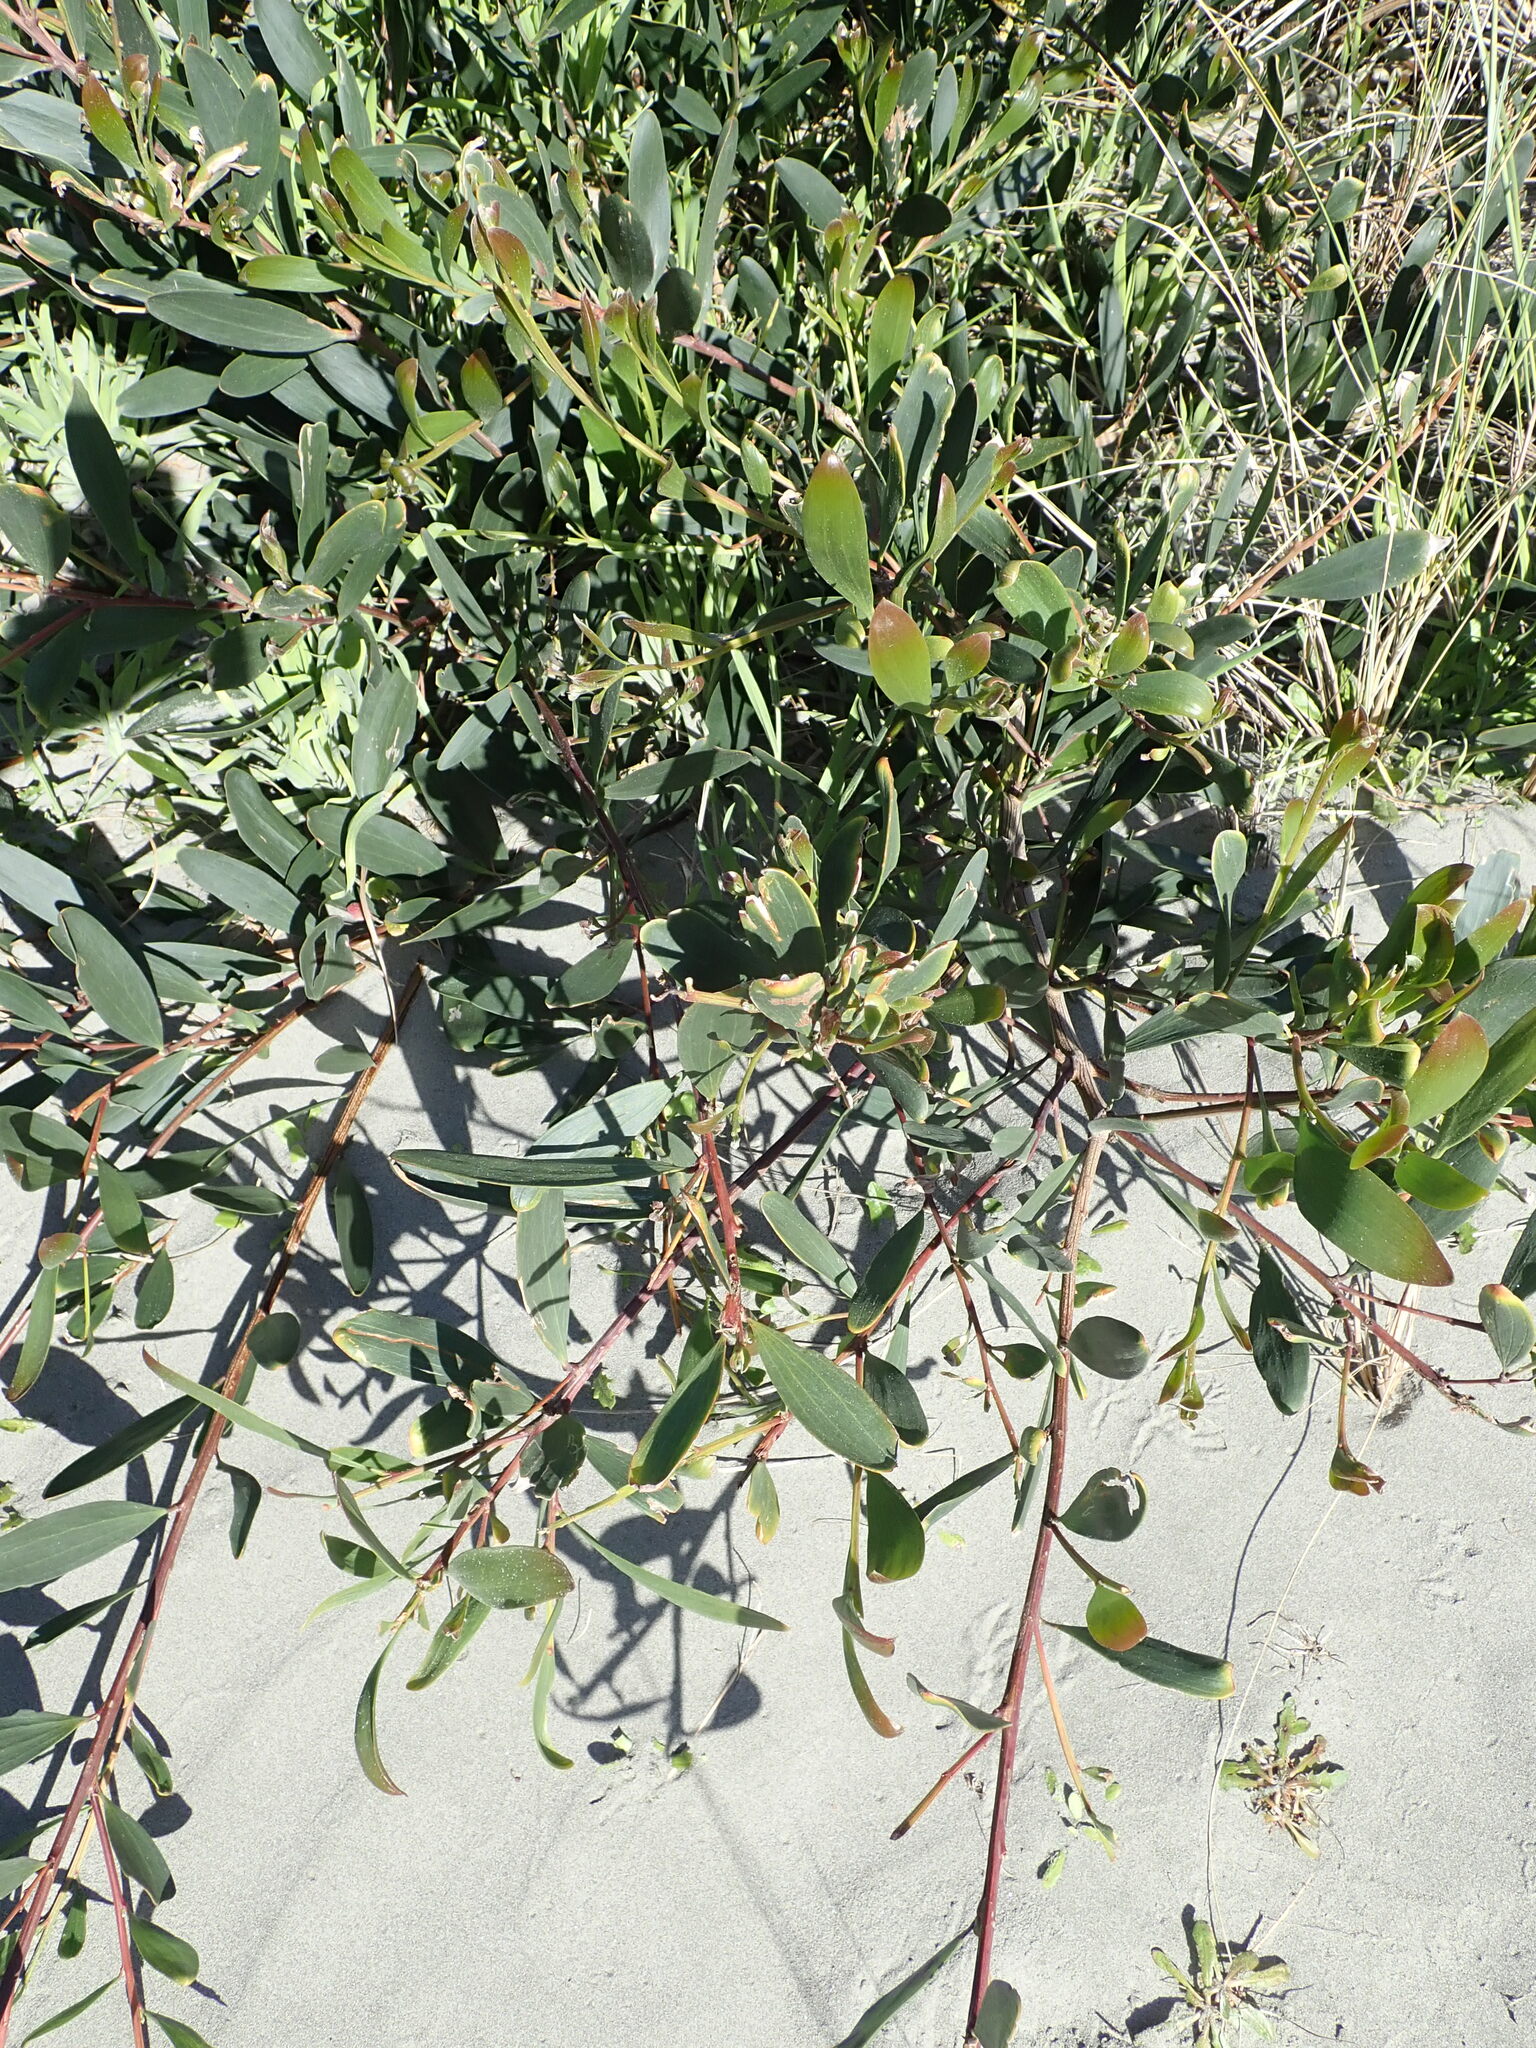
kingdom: Plantae
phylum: Tracheophyta
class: Magnoliopsida
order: Fabales
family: Fabaceae
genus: Acacia
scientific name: Acacia longifolia
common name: Sydney golden wattle
